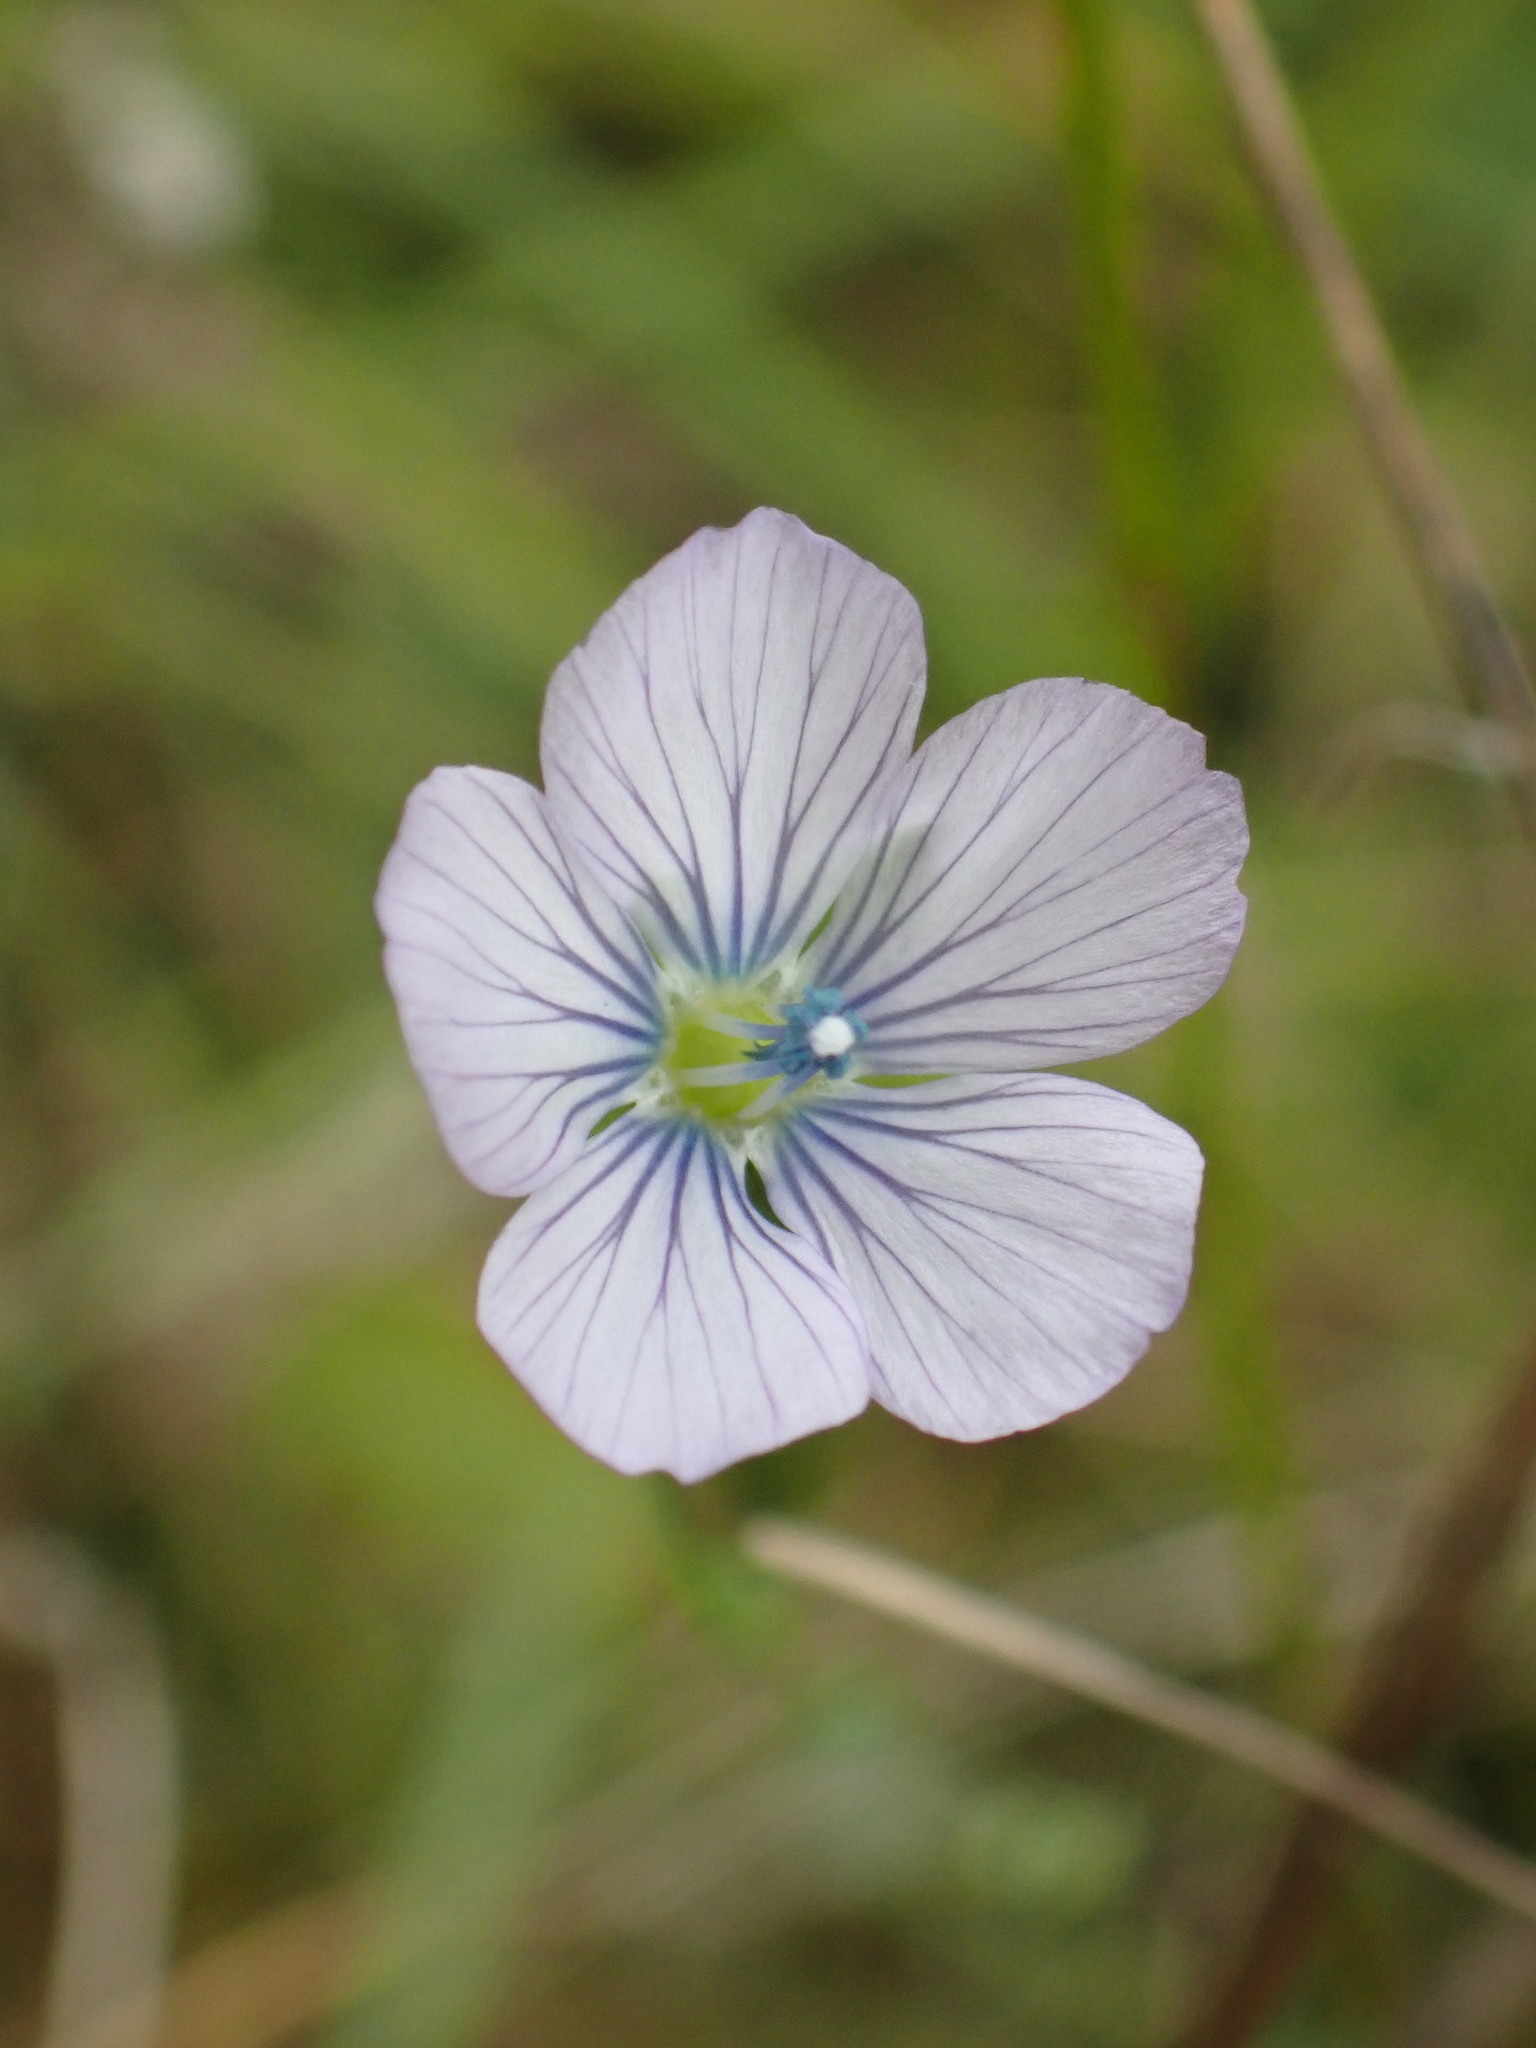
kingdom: Plantae
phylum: Tracheophyta
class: Magnoliopsida
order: Malpighiales
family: Linaceae
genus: Linum
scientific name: Linum bienne
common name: Pale flax
